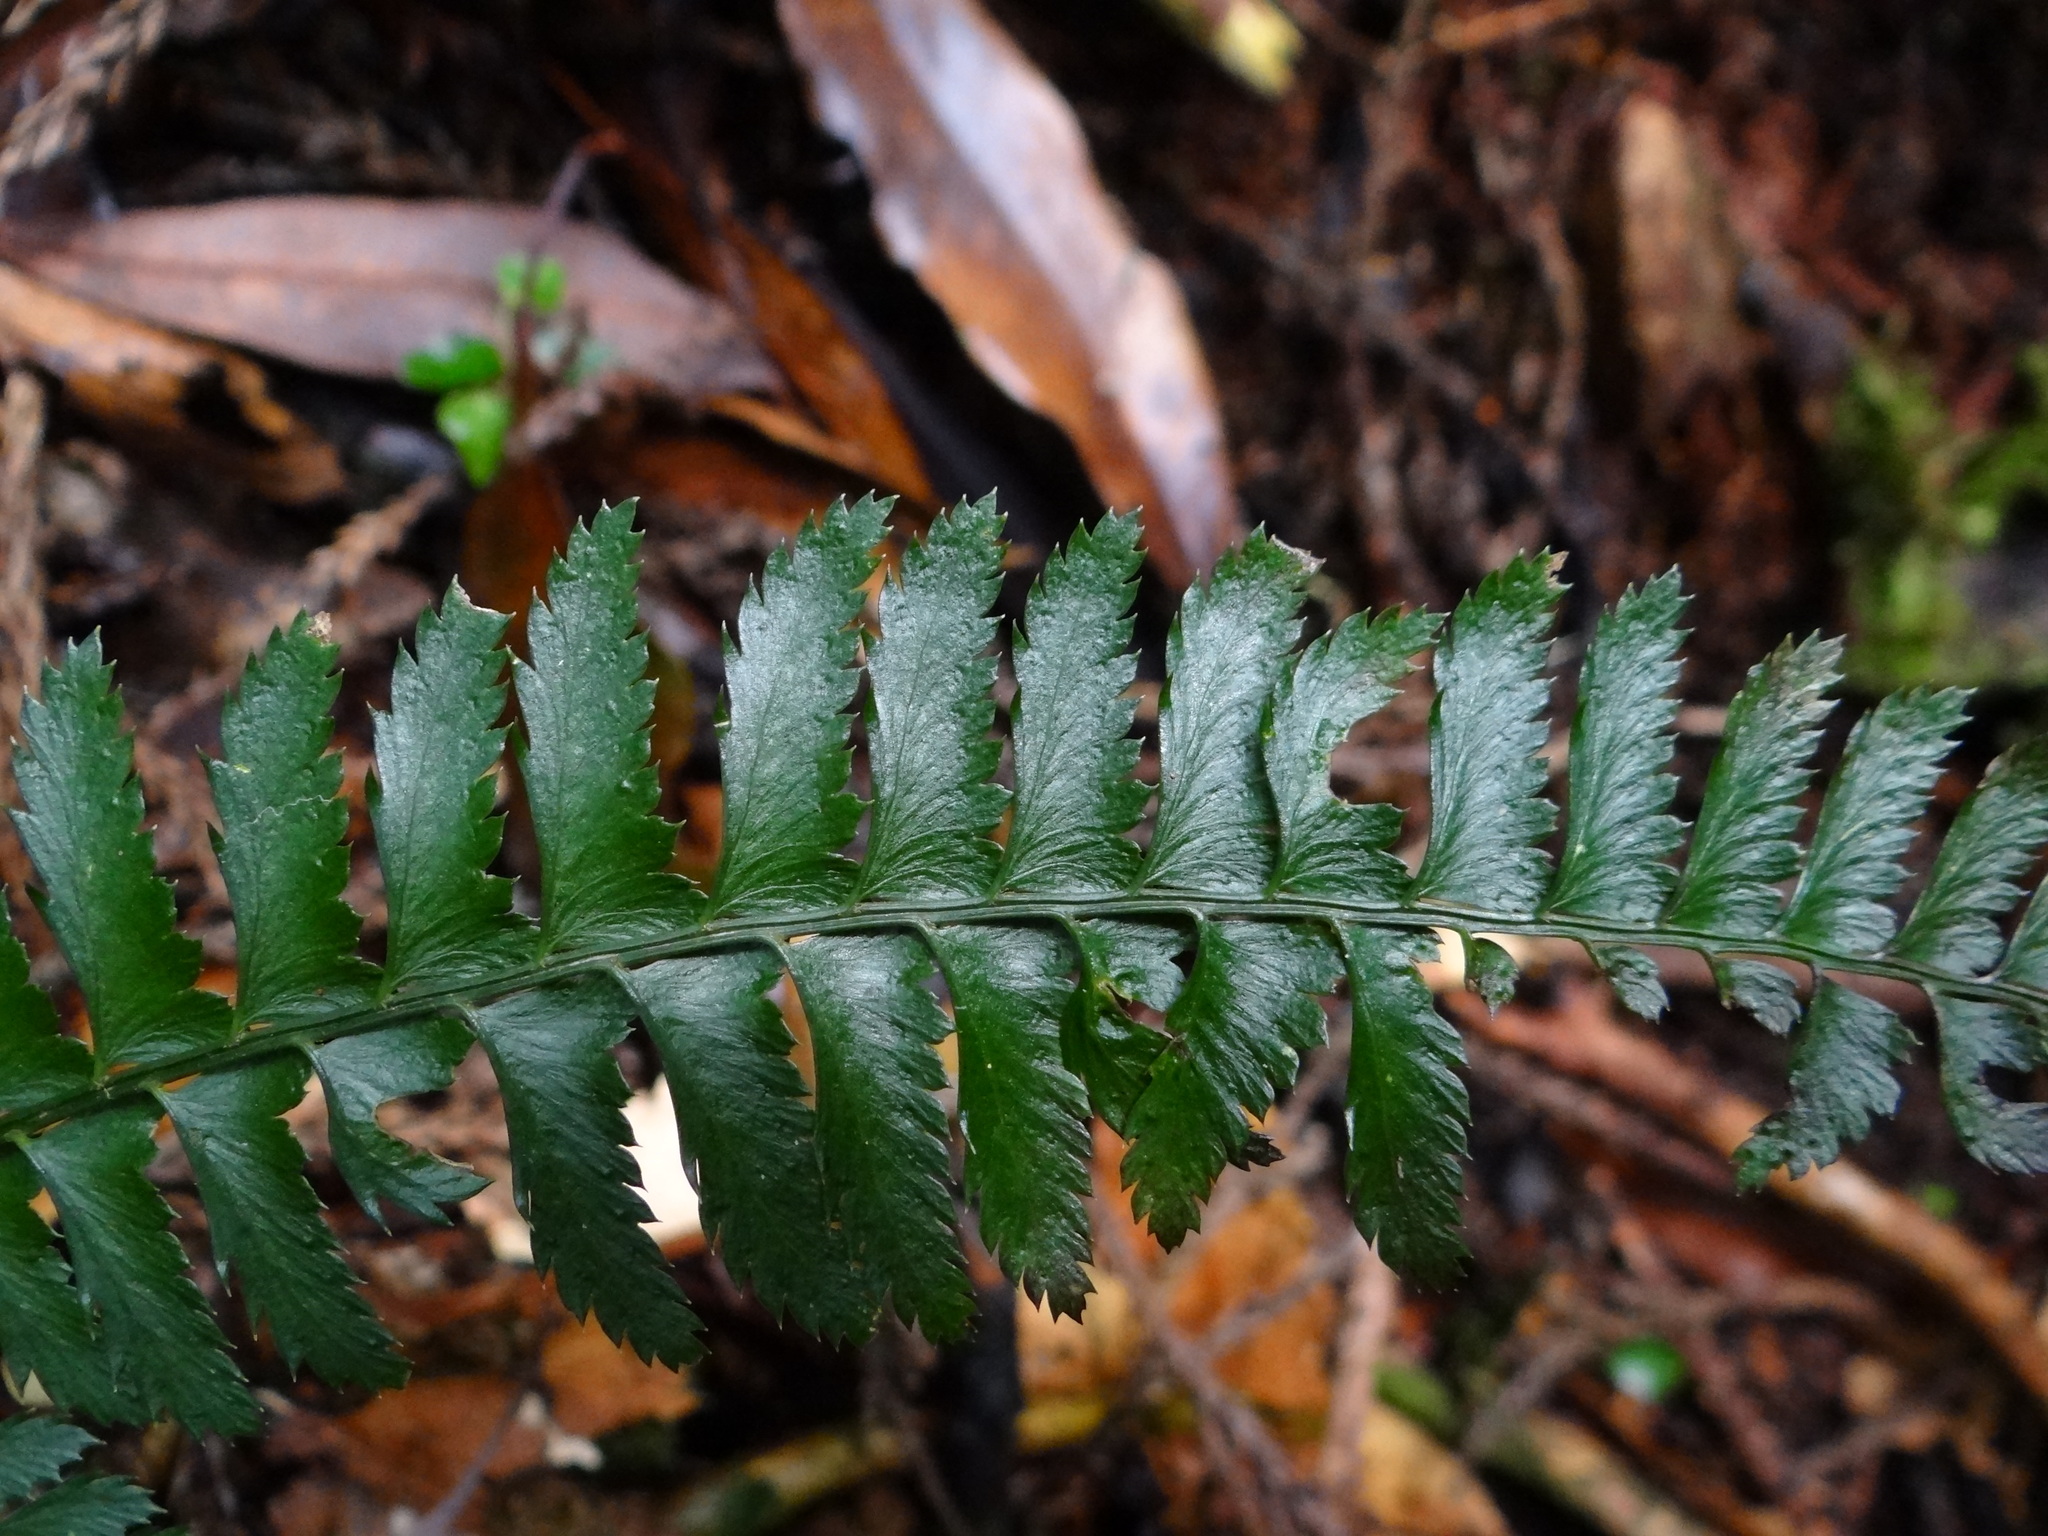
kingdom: Plantae
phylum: Tracheophyta
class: Polypodiopsida
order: Polypodiales
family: Dryopteridaceae
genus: Polystichum
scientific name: Polystichum hancockii
